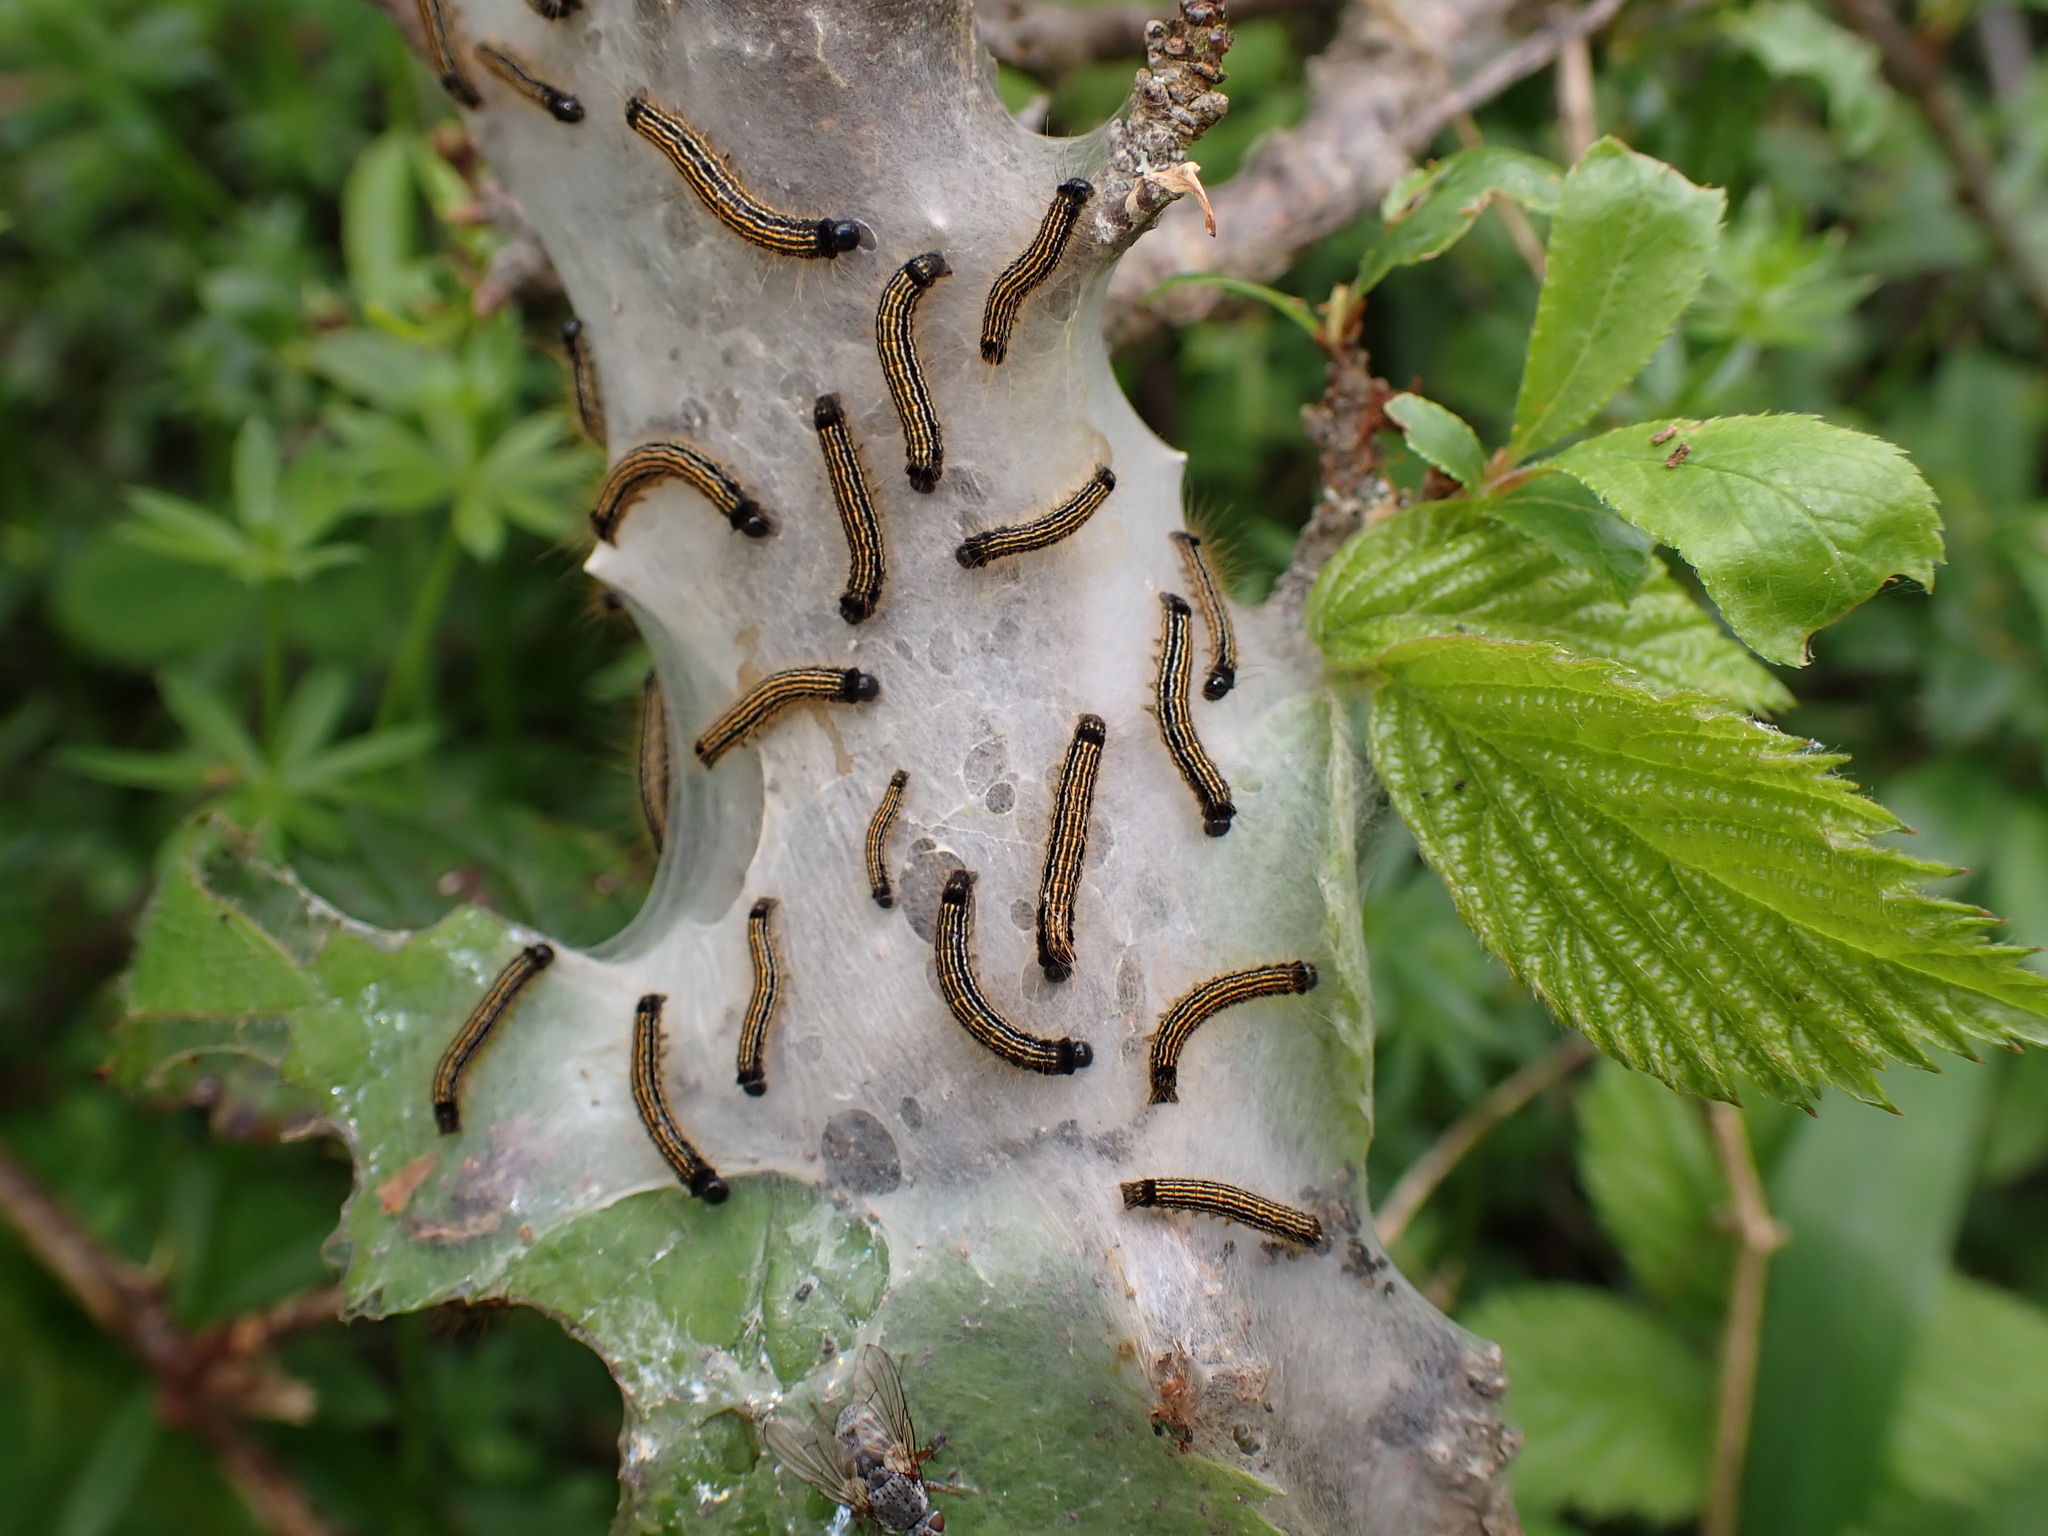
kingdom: Animalia
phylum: Arthropoda
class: Insecta
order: Lepidoptera
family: Lasiocampidae
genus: Malacosoma
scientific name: Malacosoma neustria
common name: The lackey
